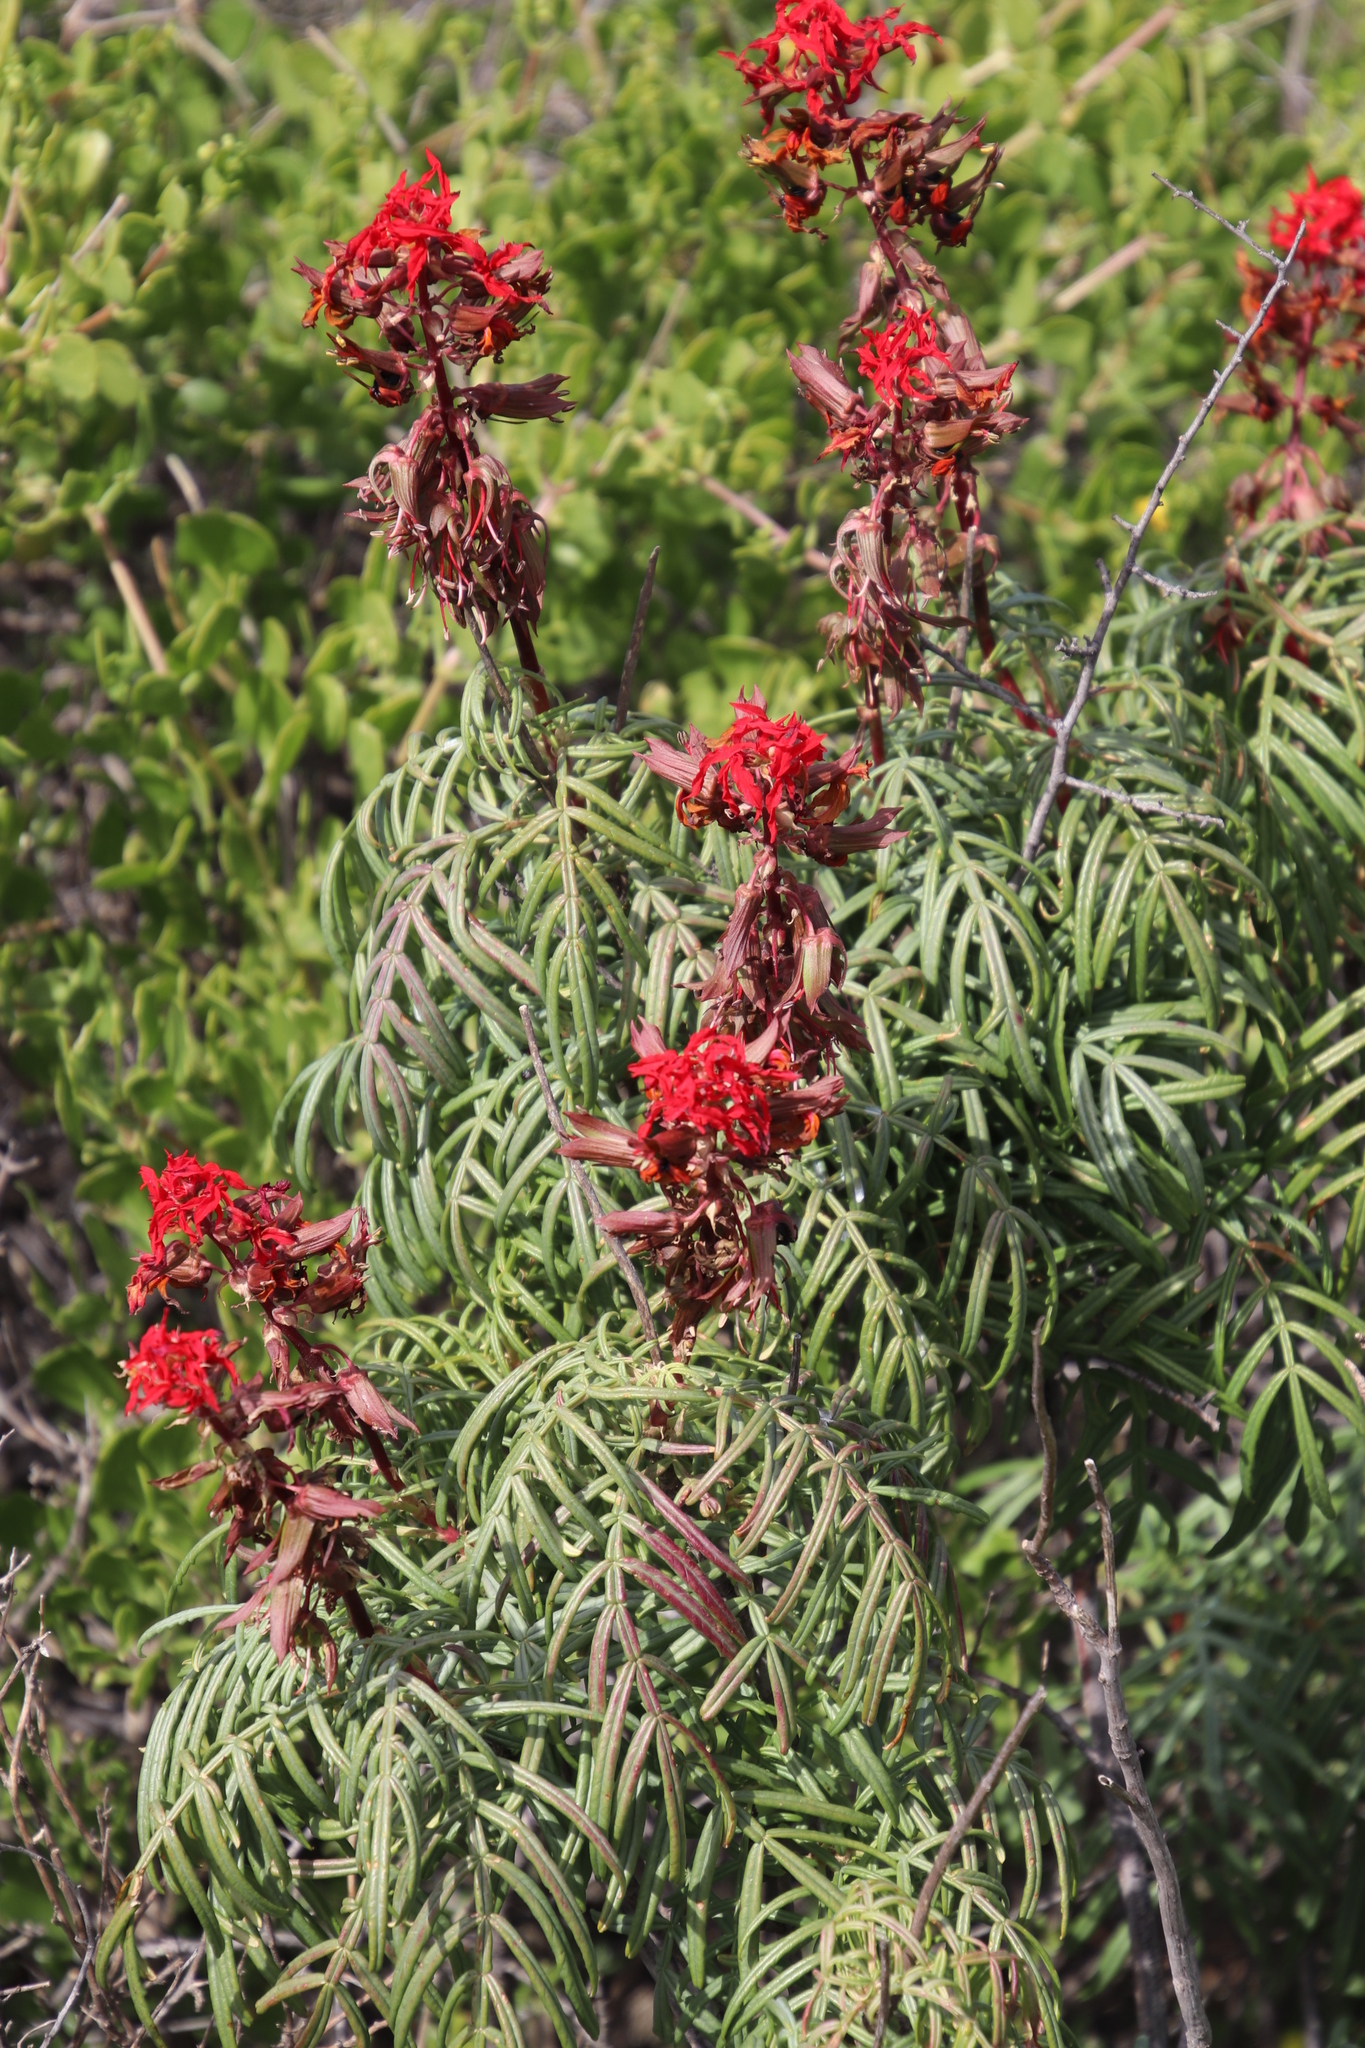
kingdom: Plantae
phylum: Tracheophyta
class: Magnoliopsida
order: Geraniales
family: Melianthaceae
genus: Melianthus
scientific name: Melianthus pectinatus
